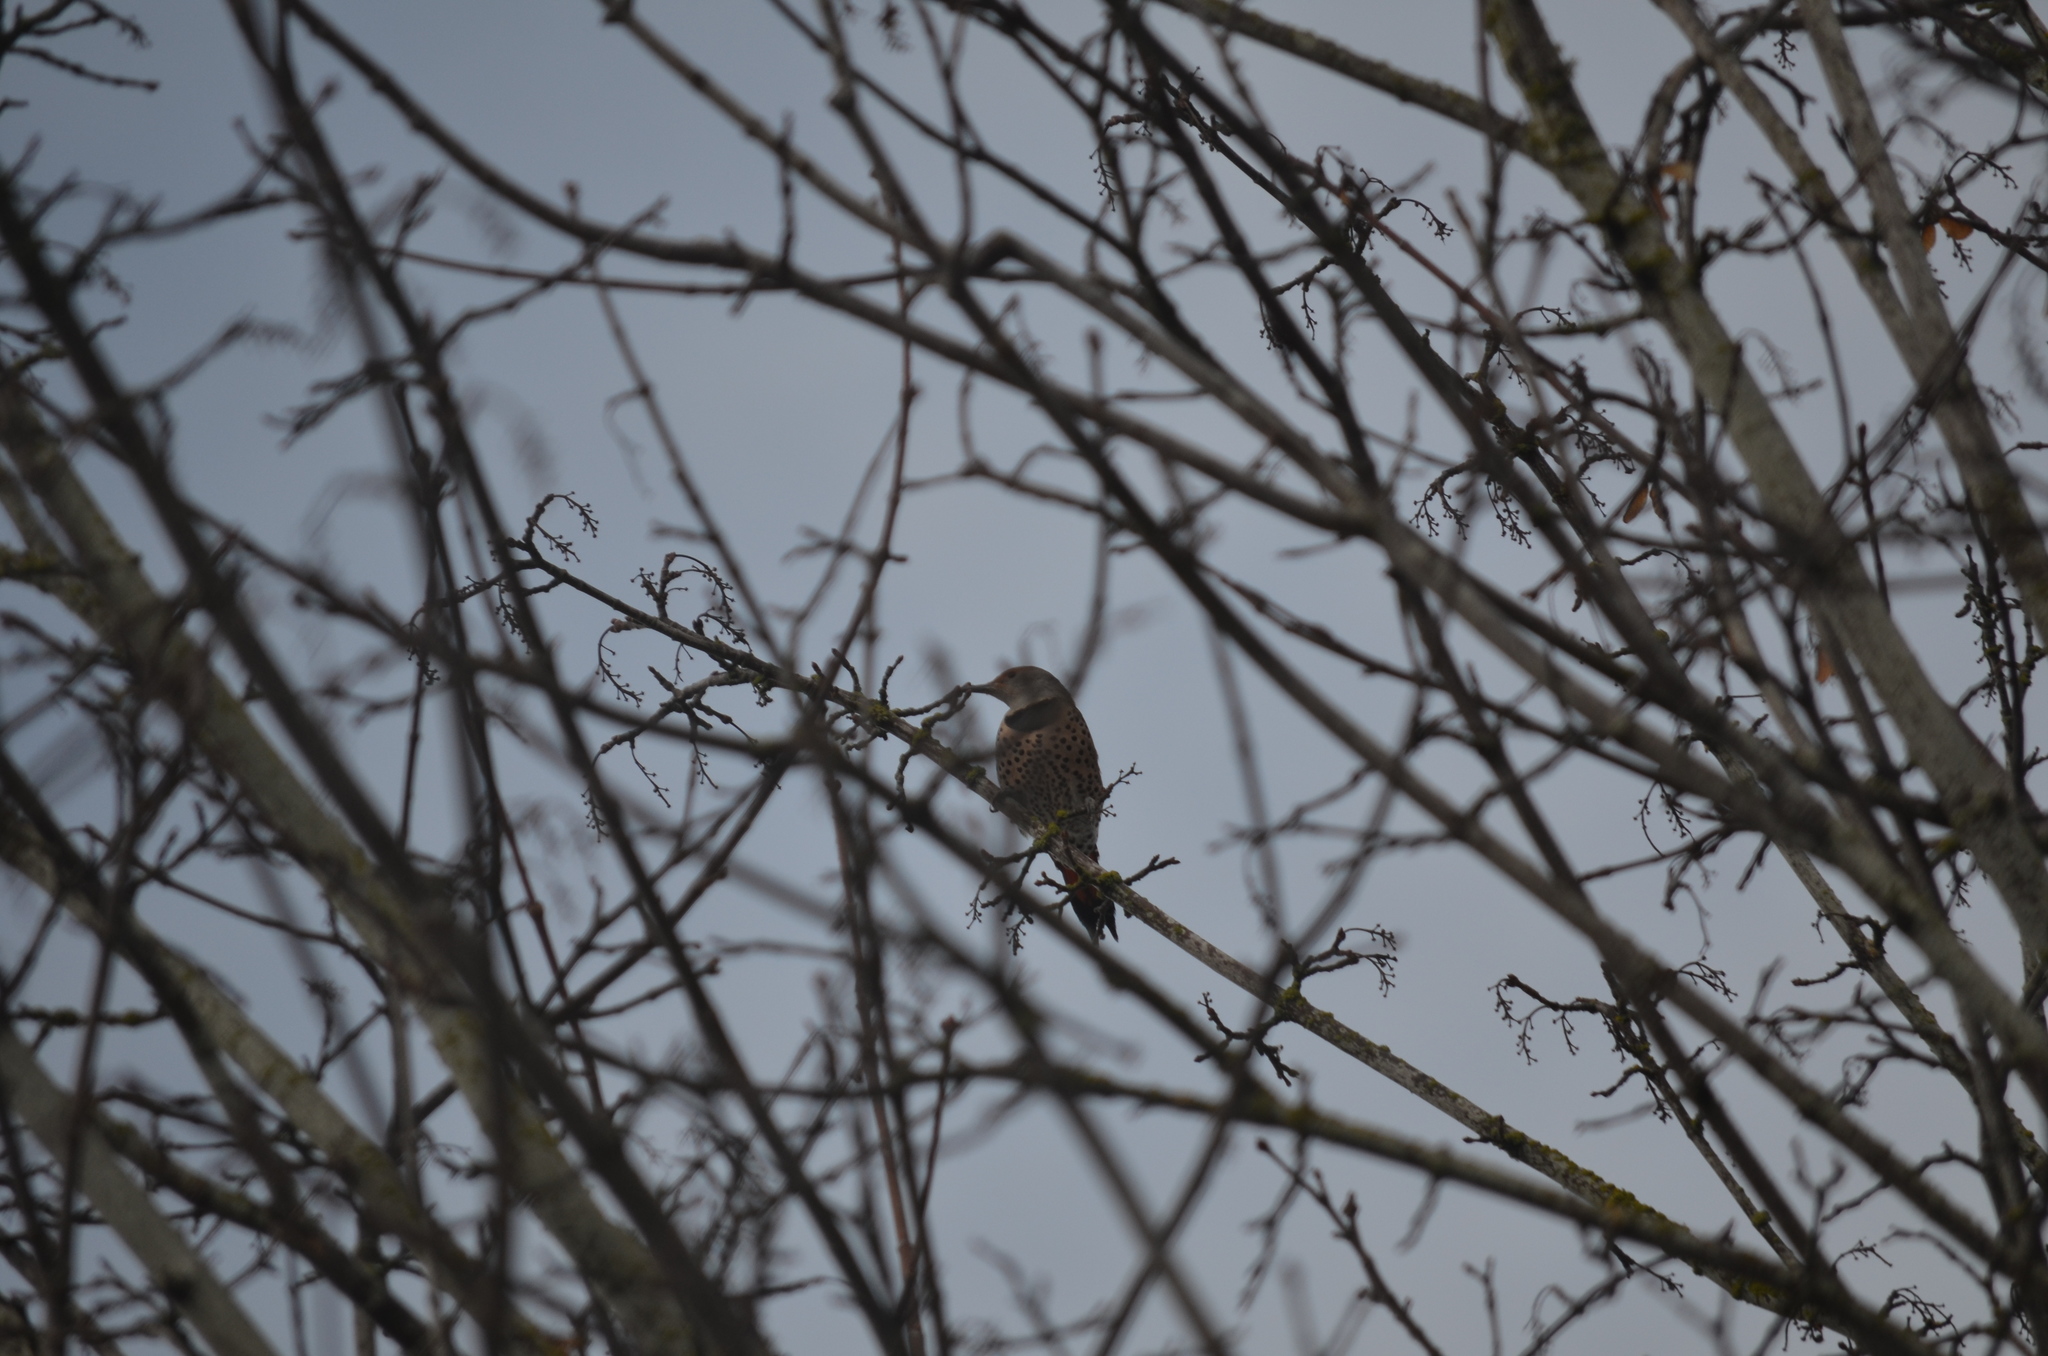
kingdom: Animalia
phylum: Chordata
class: Aves
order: Piciformes
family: Picidae
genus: Colaptes
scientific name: Colaptes auratus
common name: Northern flicker
